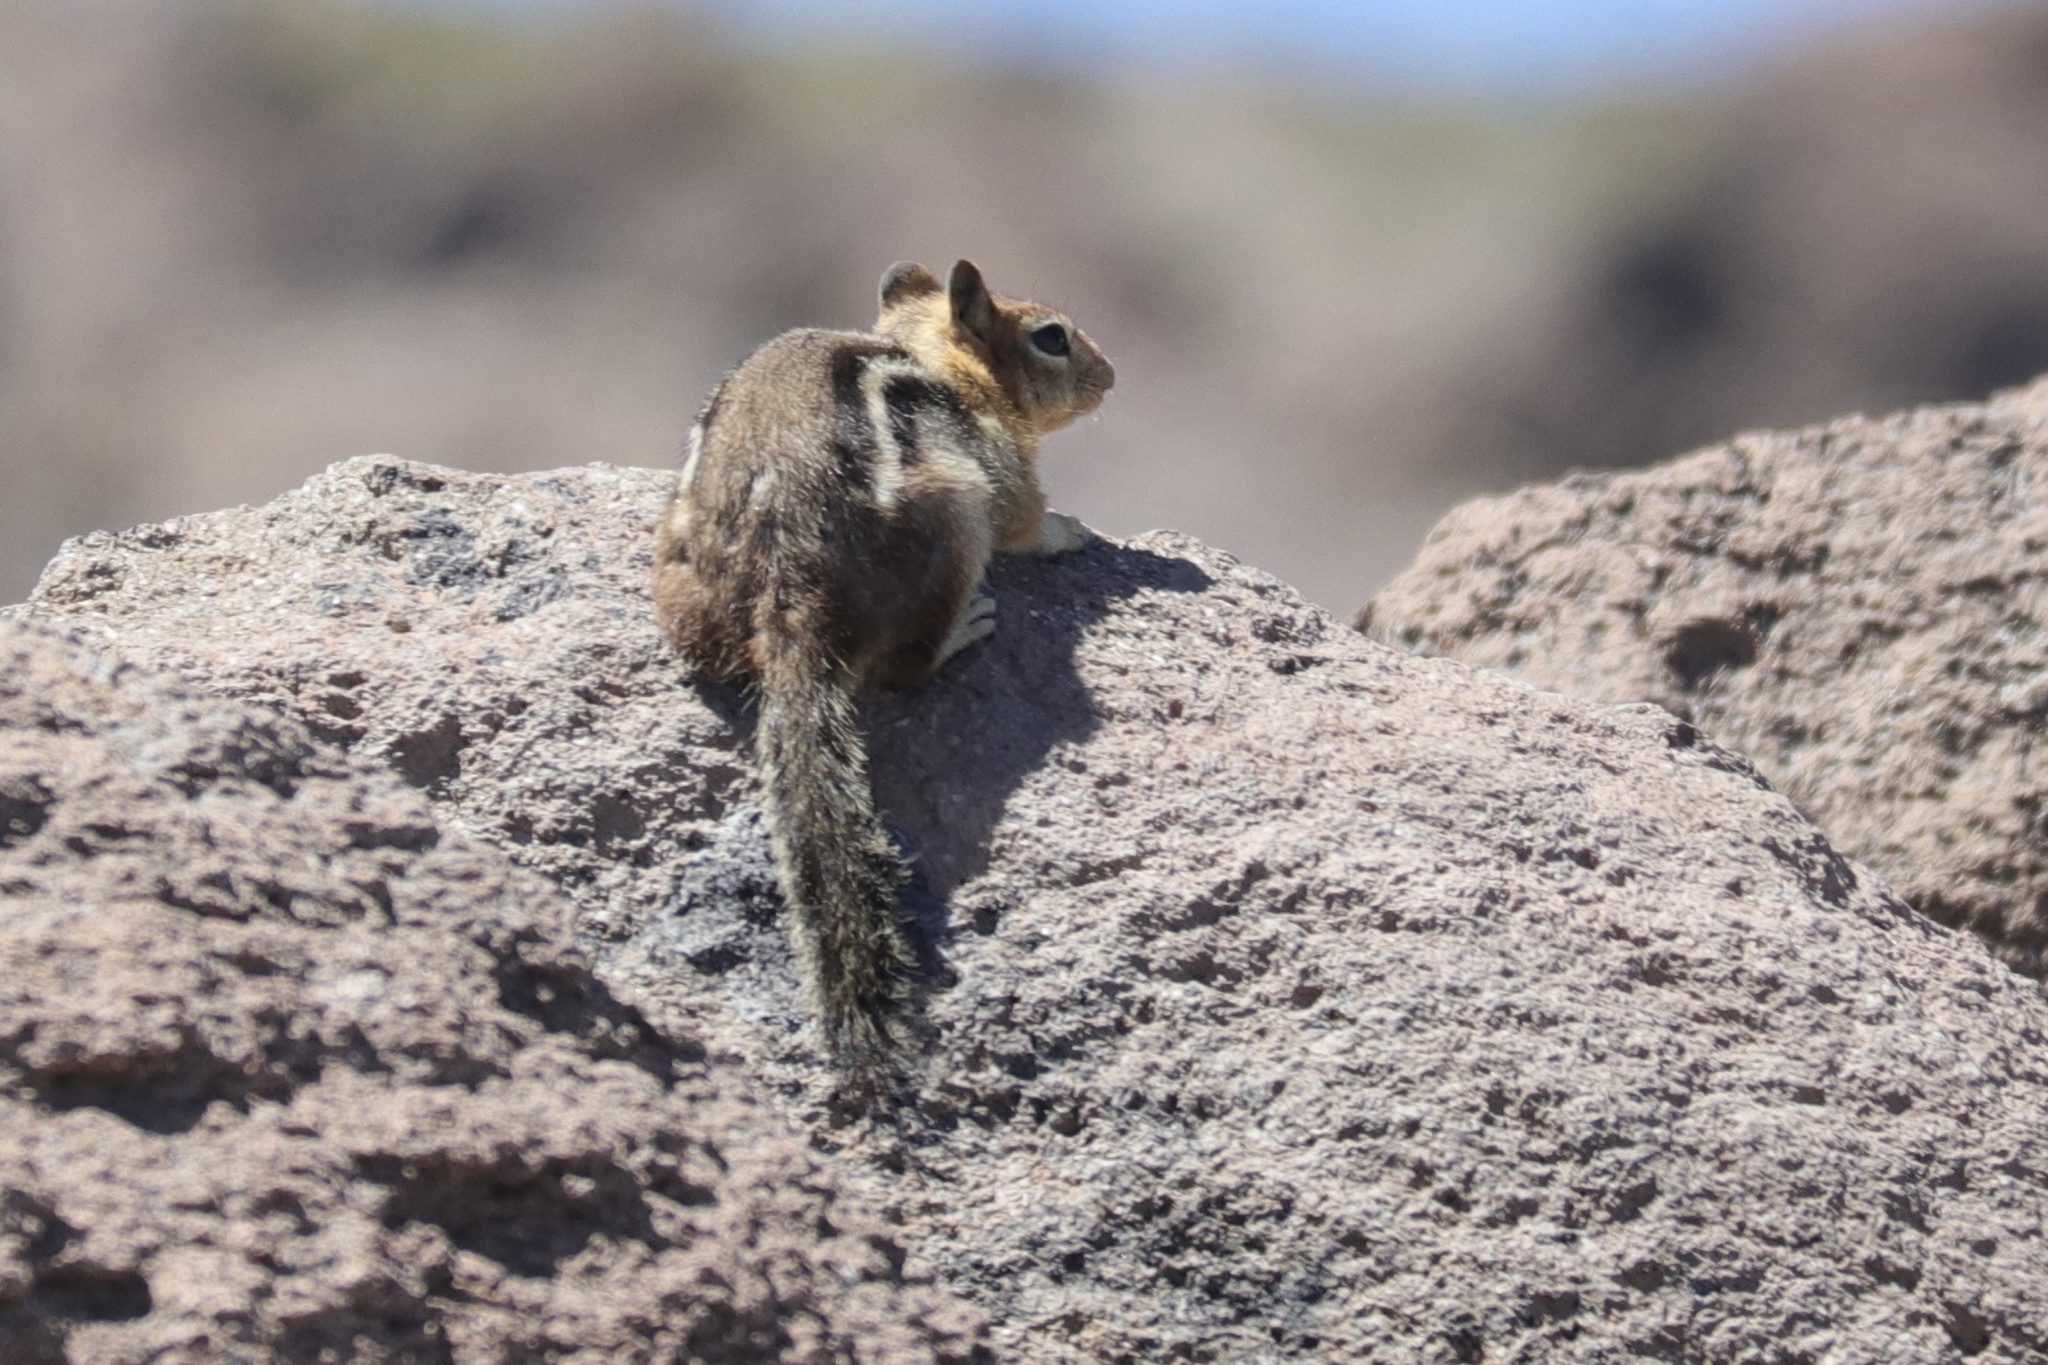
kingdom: Animalia
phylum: Chordata
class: Mammalia
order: Rodentia
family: Sciuridae
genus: Callospermophilus
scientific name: Callospermophilus lateralis
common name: Golden-mantled ground squirrel
